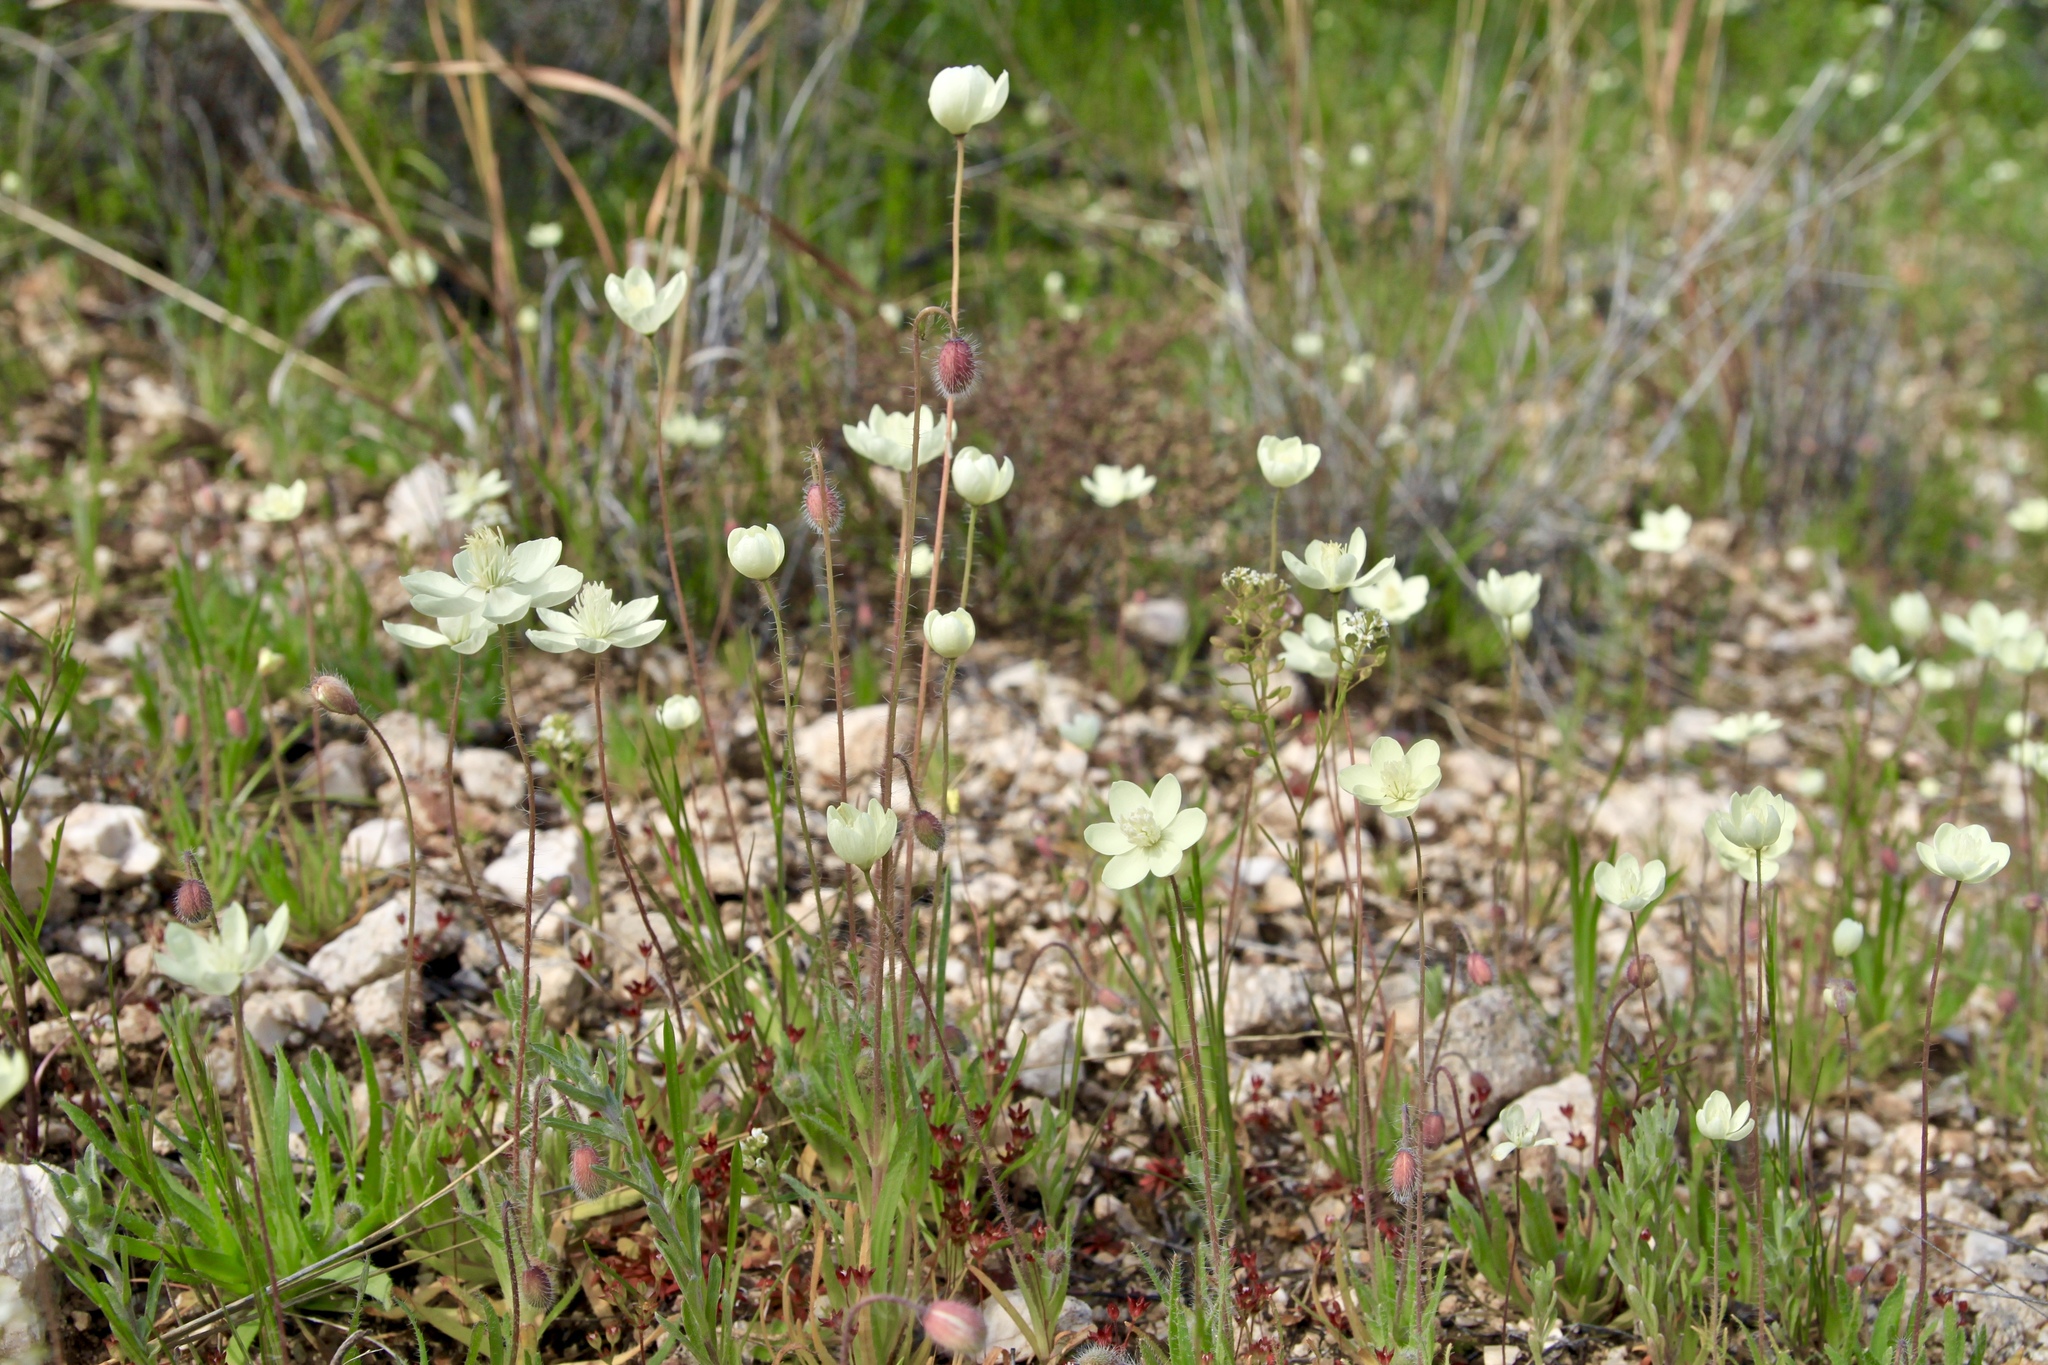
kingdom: Plantae
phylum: Tracheophyta
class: Magnoliopsida
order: Ranunculales
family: Papaveraceae
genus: Platystemon
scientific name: Platystemon californicus
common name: Cream-cups
